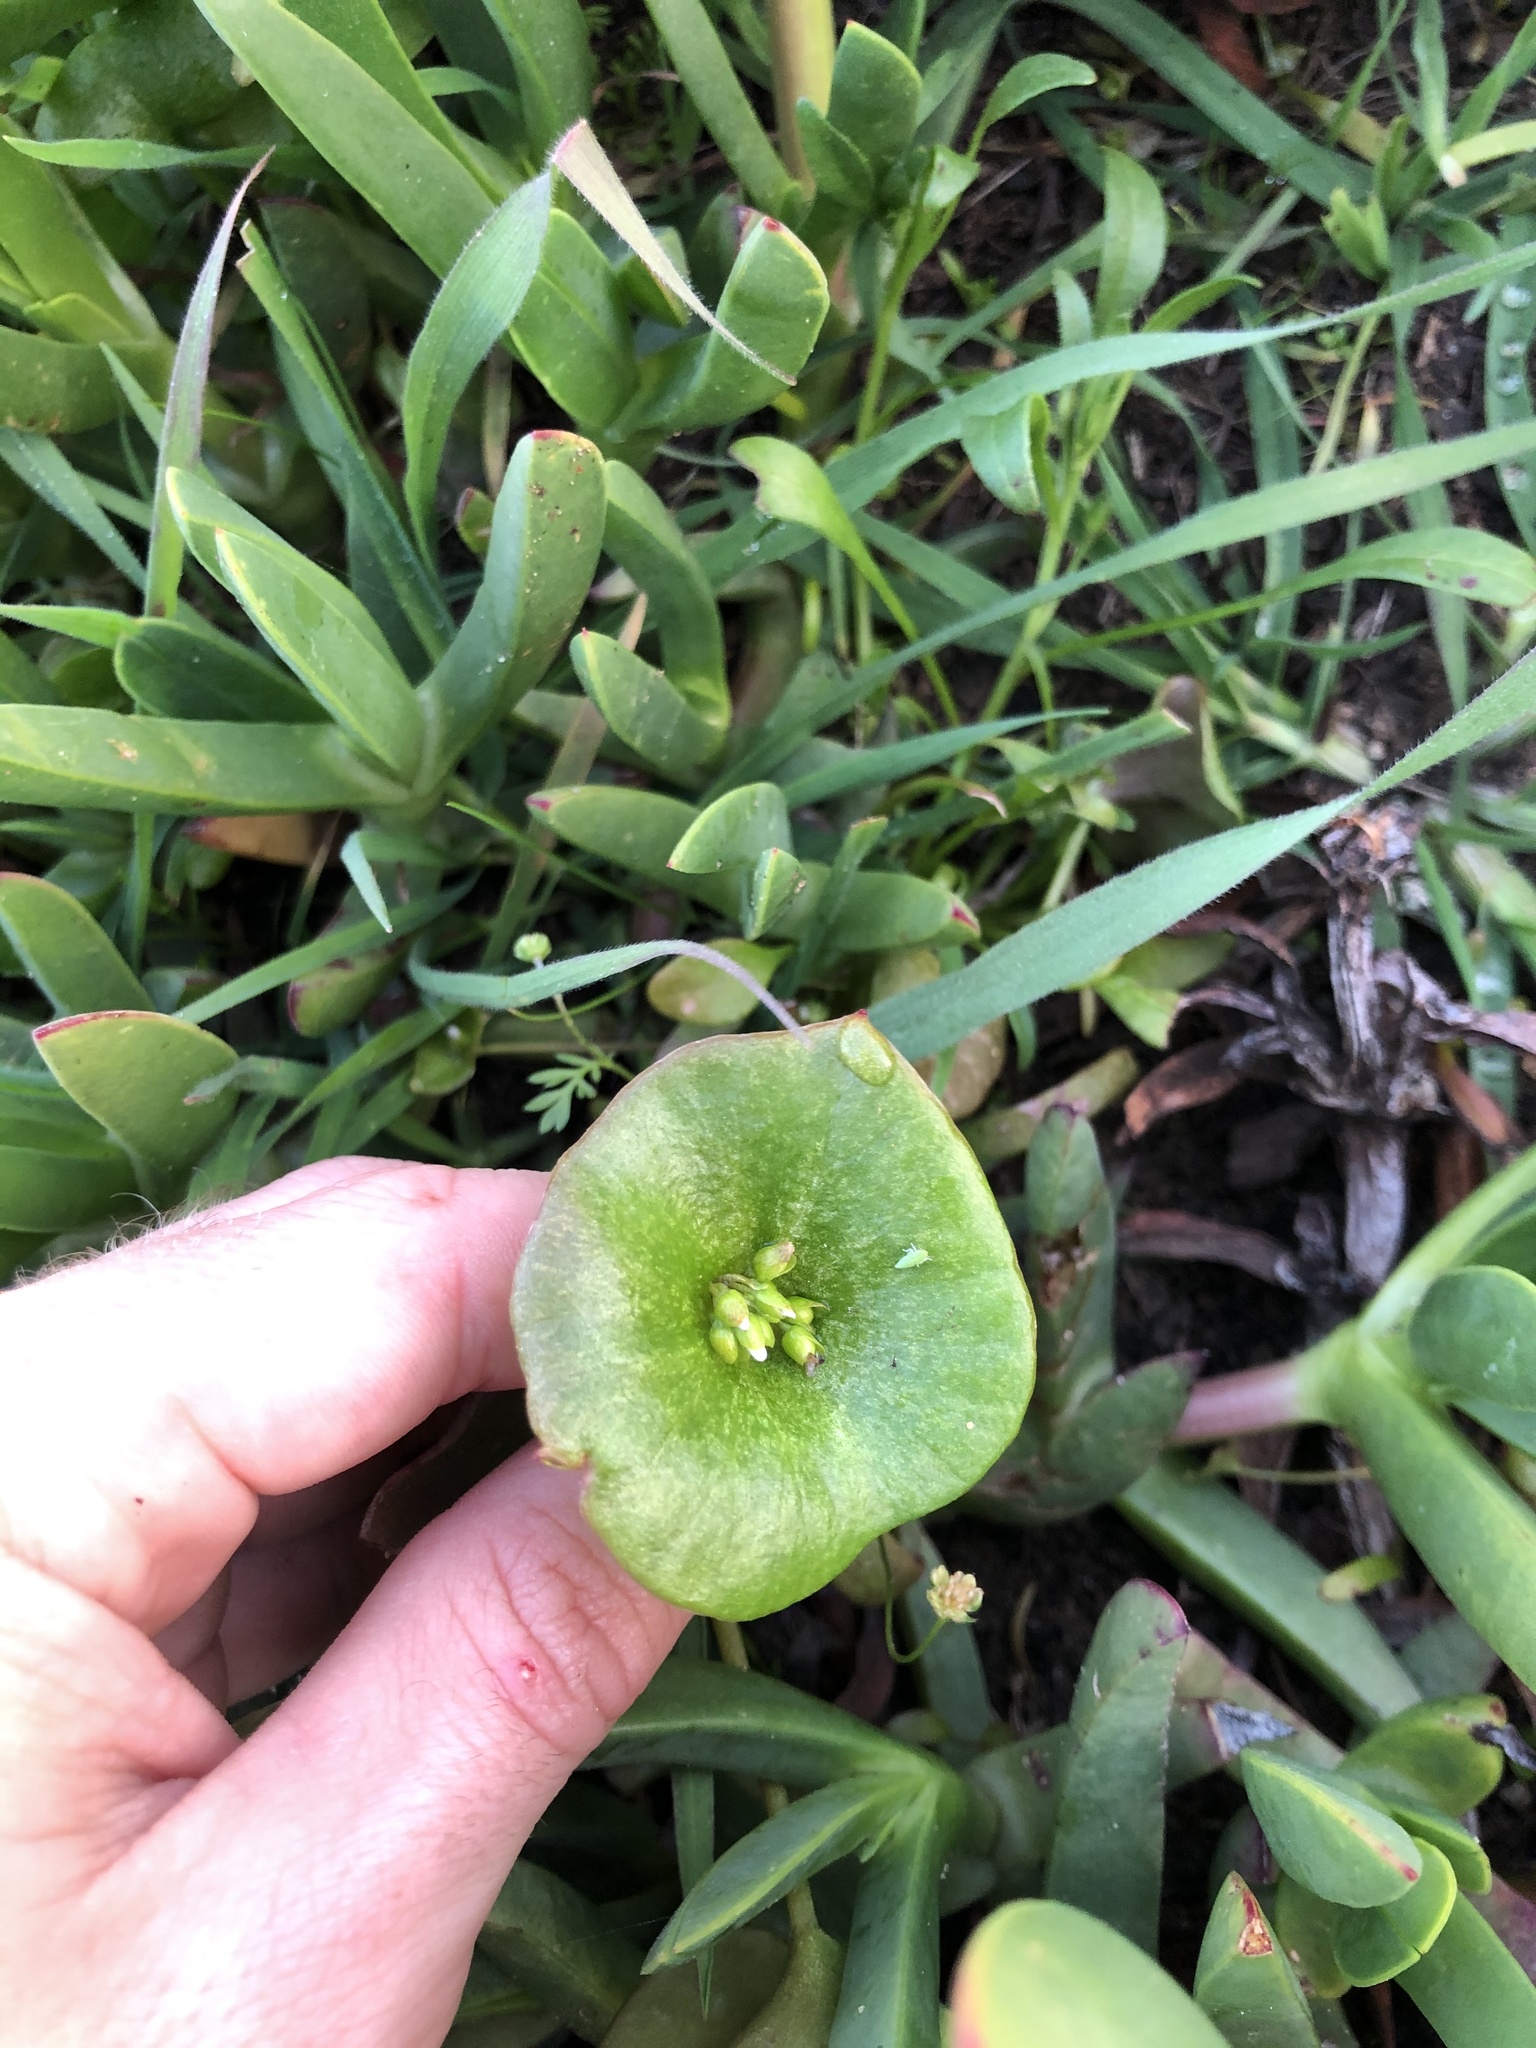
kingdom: Plantae
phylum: Tracheophyta
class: Magnoliopsida
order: Caryophyllales
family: Montiaceae
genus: Claytonia
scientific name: Claytonia perfoliata
